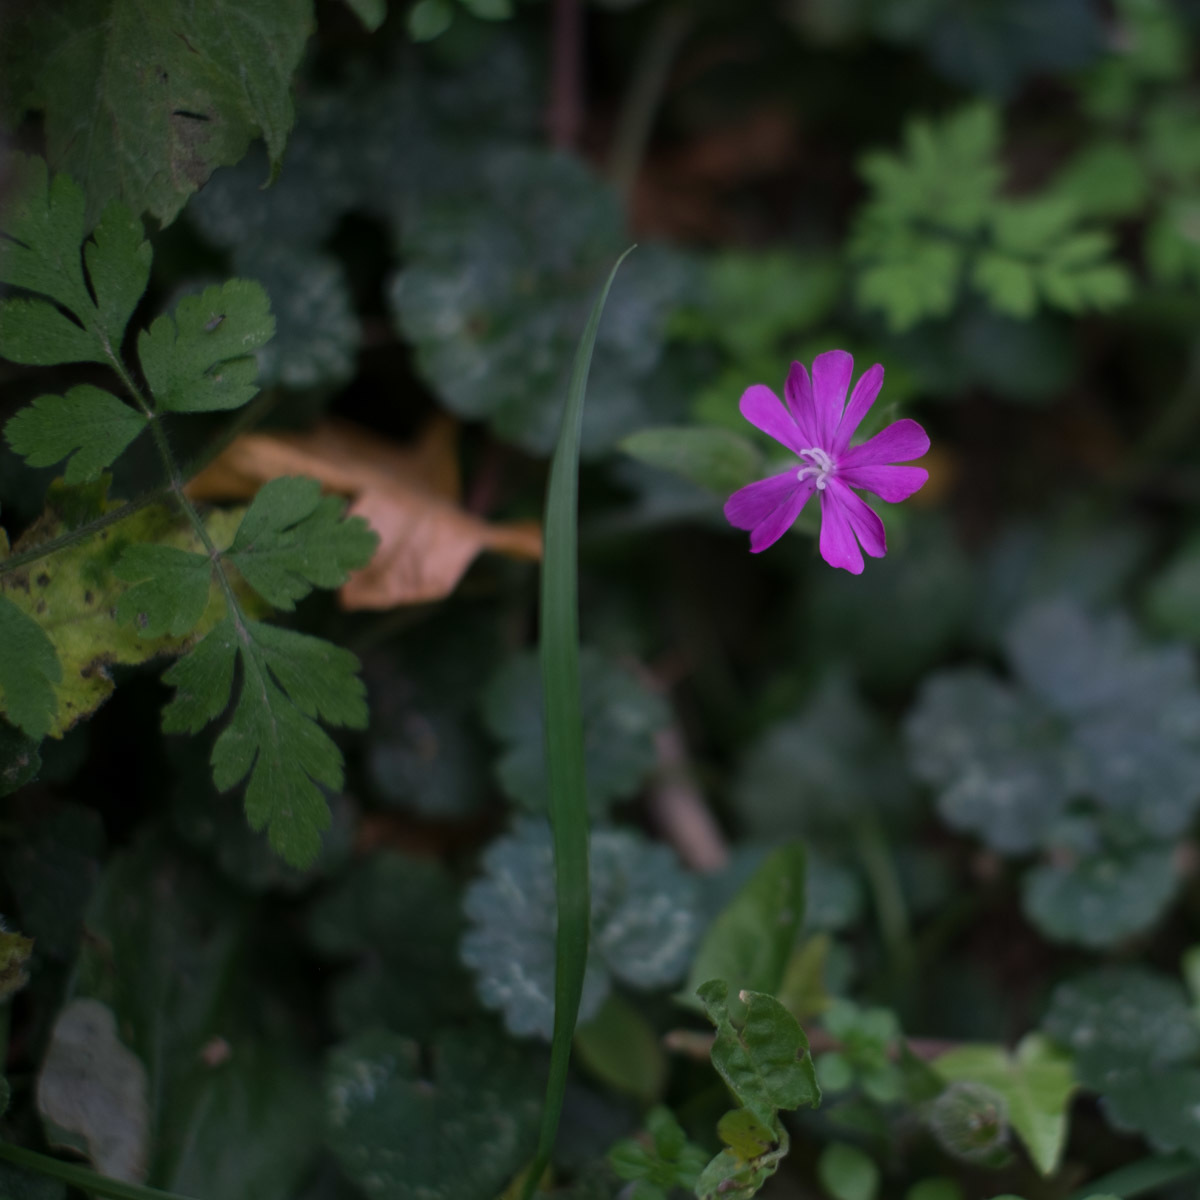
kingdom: Plantae
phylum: Tracheophyta
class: Magnoliopsida
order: Caryophyllales
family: Caryophyllaceae
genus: Silene
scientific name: Silene dioica
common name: Red campion
